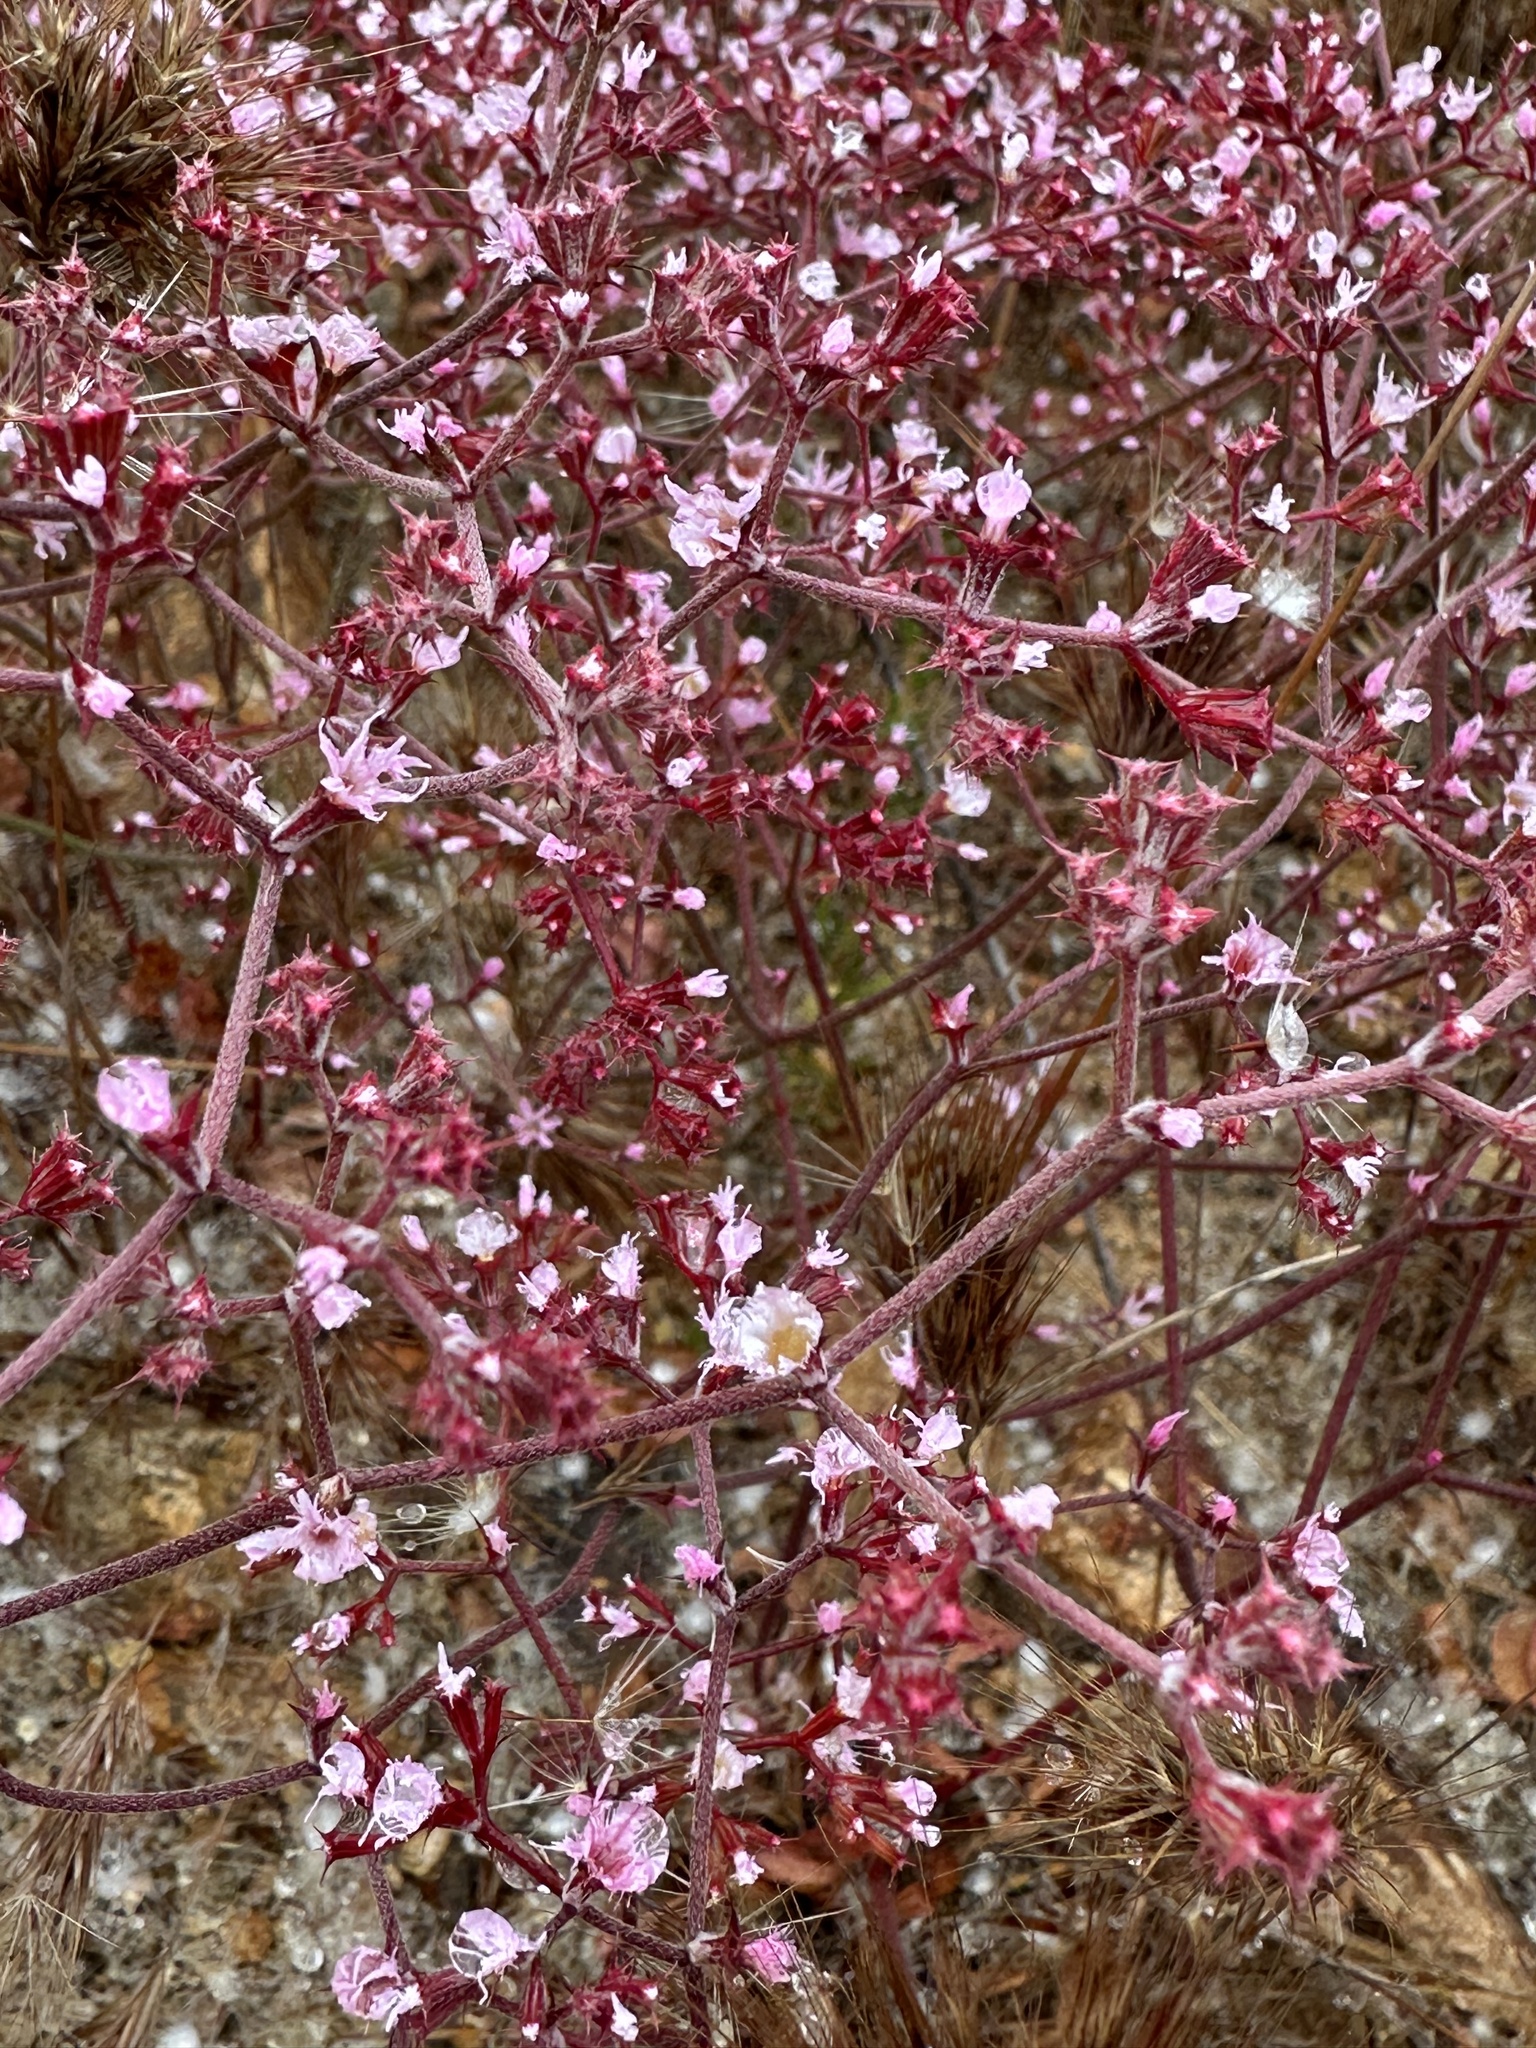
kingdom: Plantae
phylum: Tracheophyta
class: Magnoliopsida
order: Caryophyllales
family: Polygonaceae
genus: Chorizanthe
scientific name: Chorizanthe fimbriata
